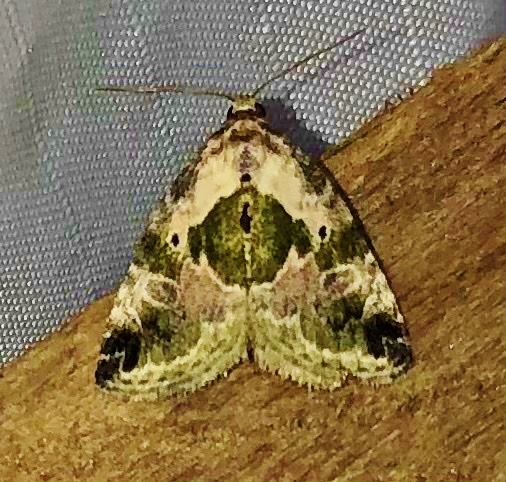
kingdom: Animalia
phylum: Arthropoda
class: Insecta
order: Lepidoptera
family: Noctuidae
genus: Maliattha
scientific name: Maliattha synochitis
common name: Black-dotted glyph
